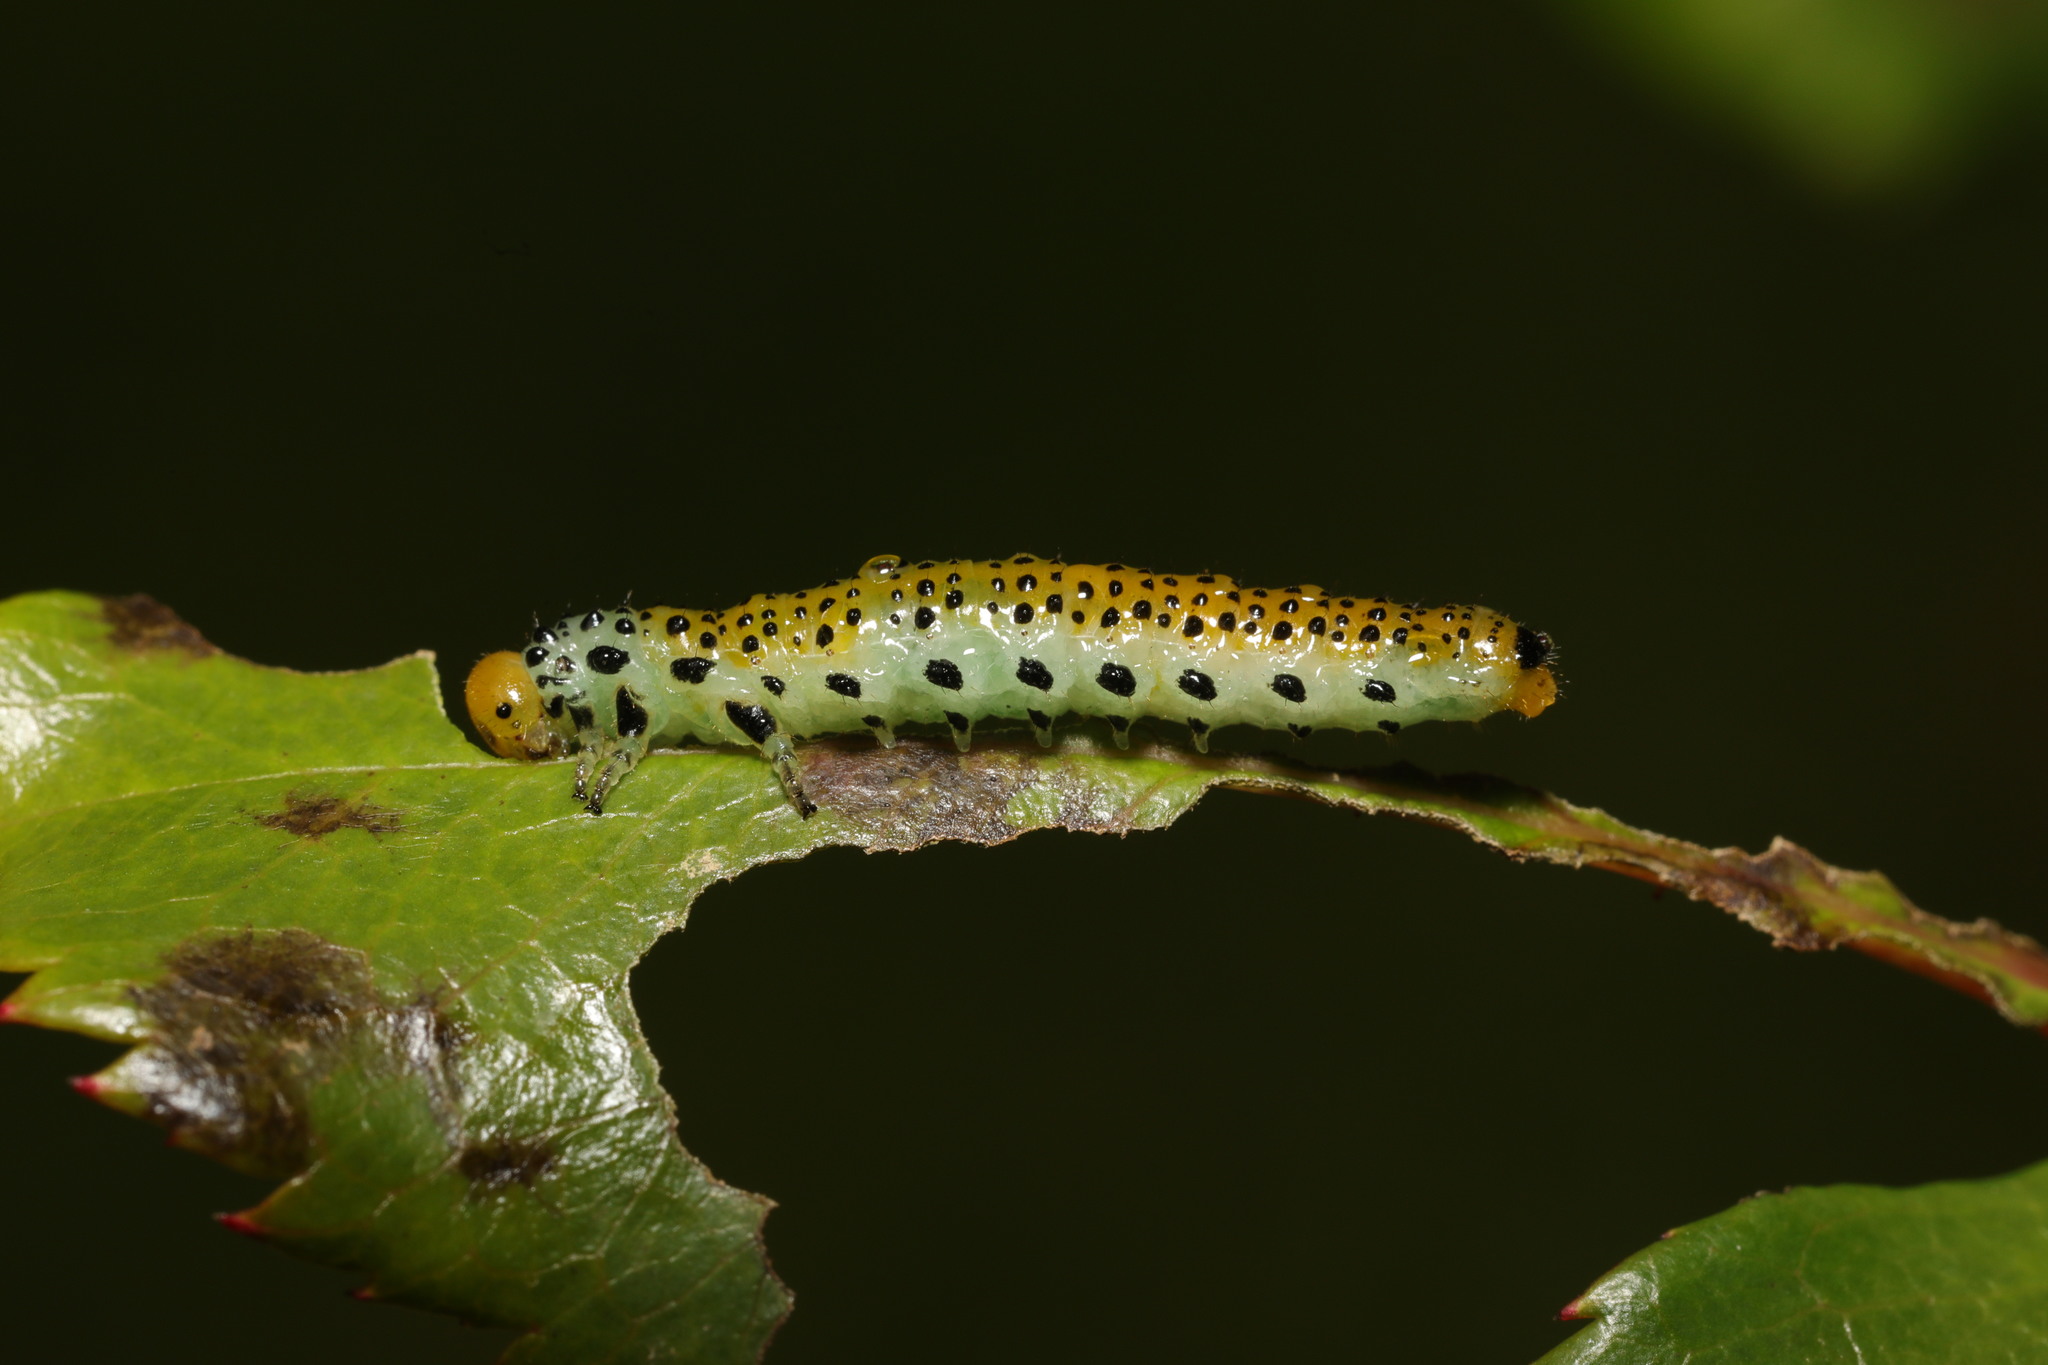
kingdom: Animalia
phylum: Arthropoda
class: Insecta
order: Hymenoptera
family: Argidae
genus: Arge
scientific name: Arge pagana
